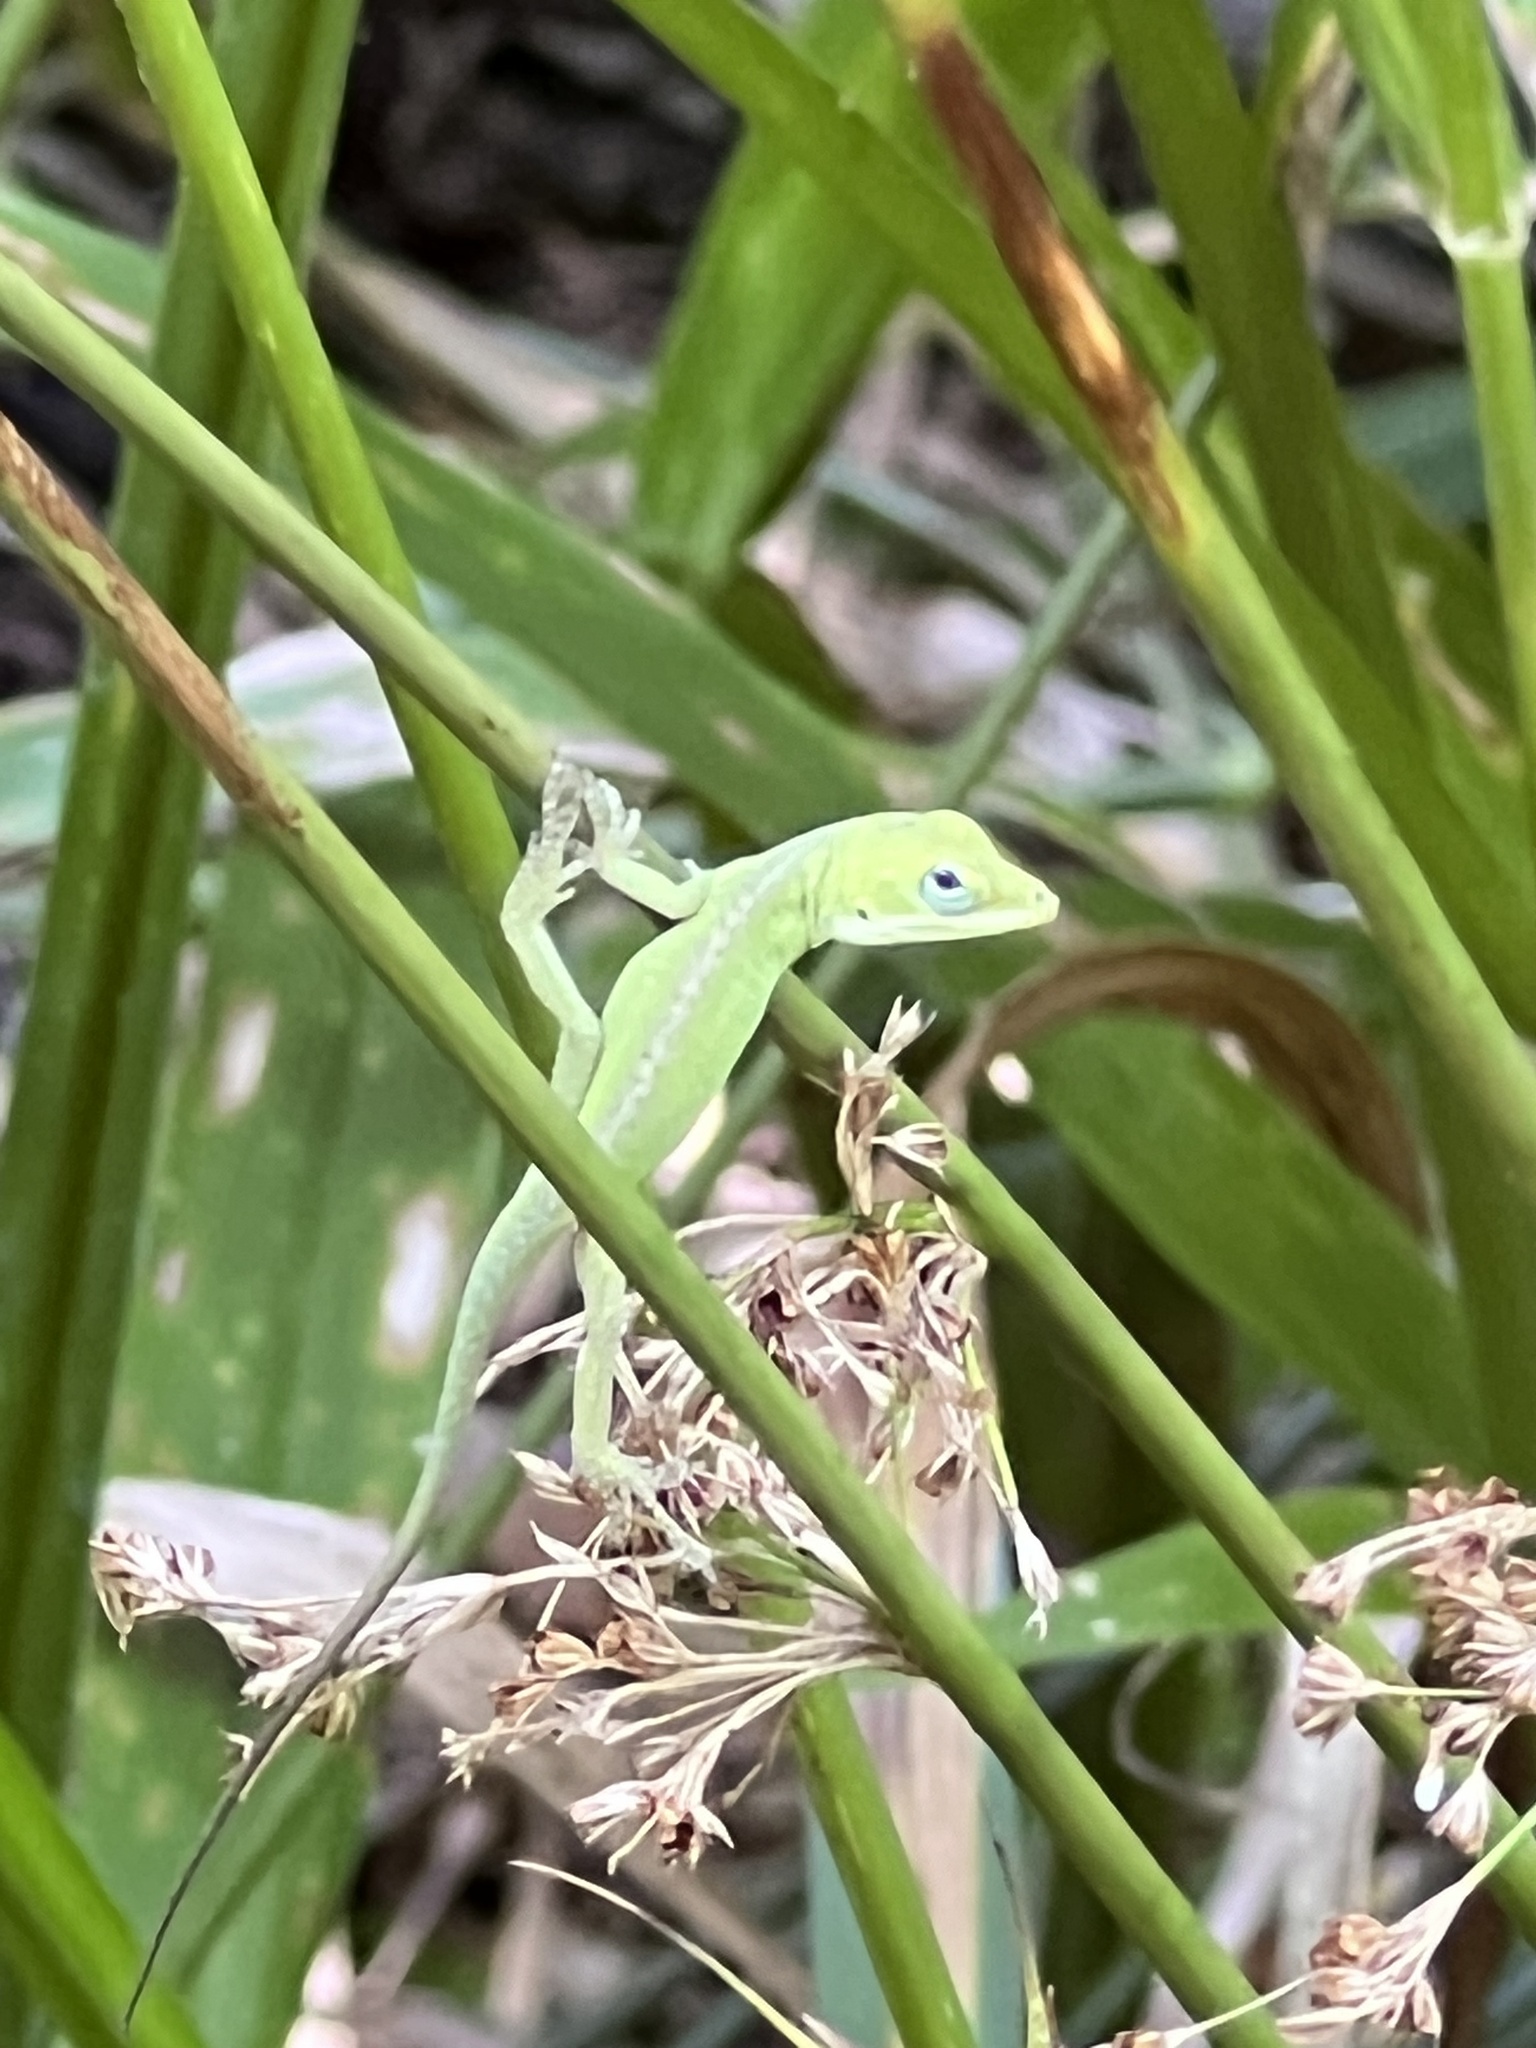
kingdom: Animalia
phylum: Chordata
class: Squamata
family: Dactyloidae
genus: Anolis
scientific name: Anolis carolinensis
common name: Green anole
